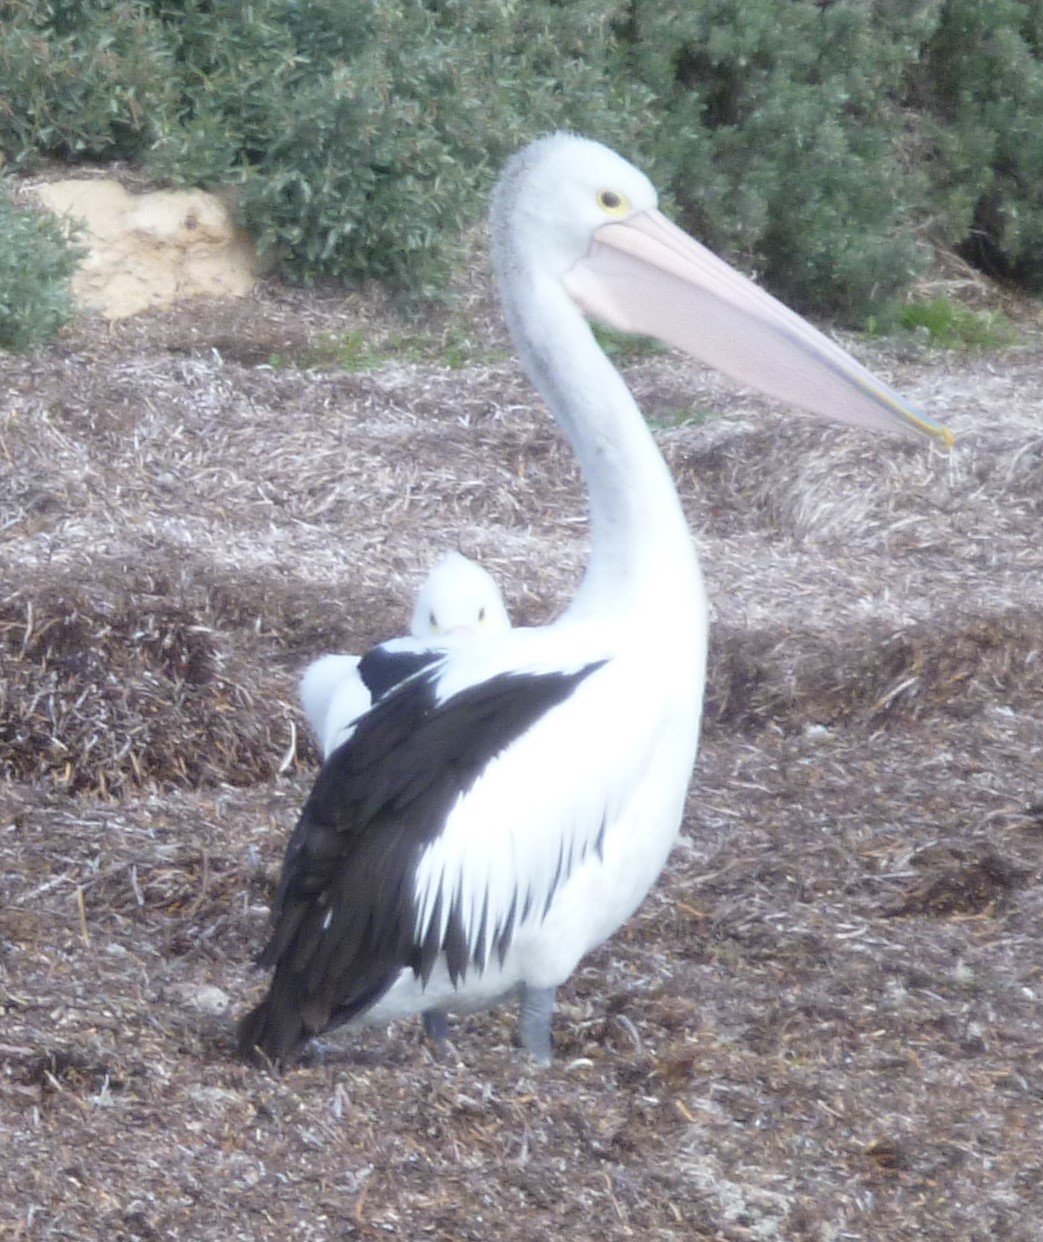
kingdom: Animalia
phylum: Chordata
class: Aves
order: Pelecaniformes
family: Pelecanidae
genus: Pelecanus
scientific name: Pelecanus conspicillatus
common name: Australian pelican
